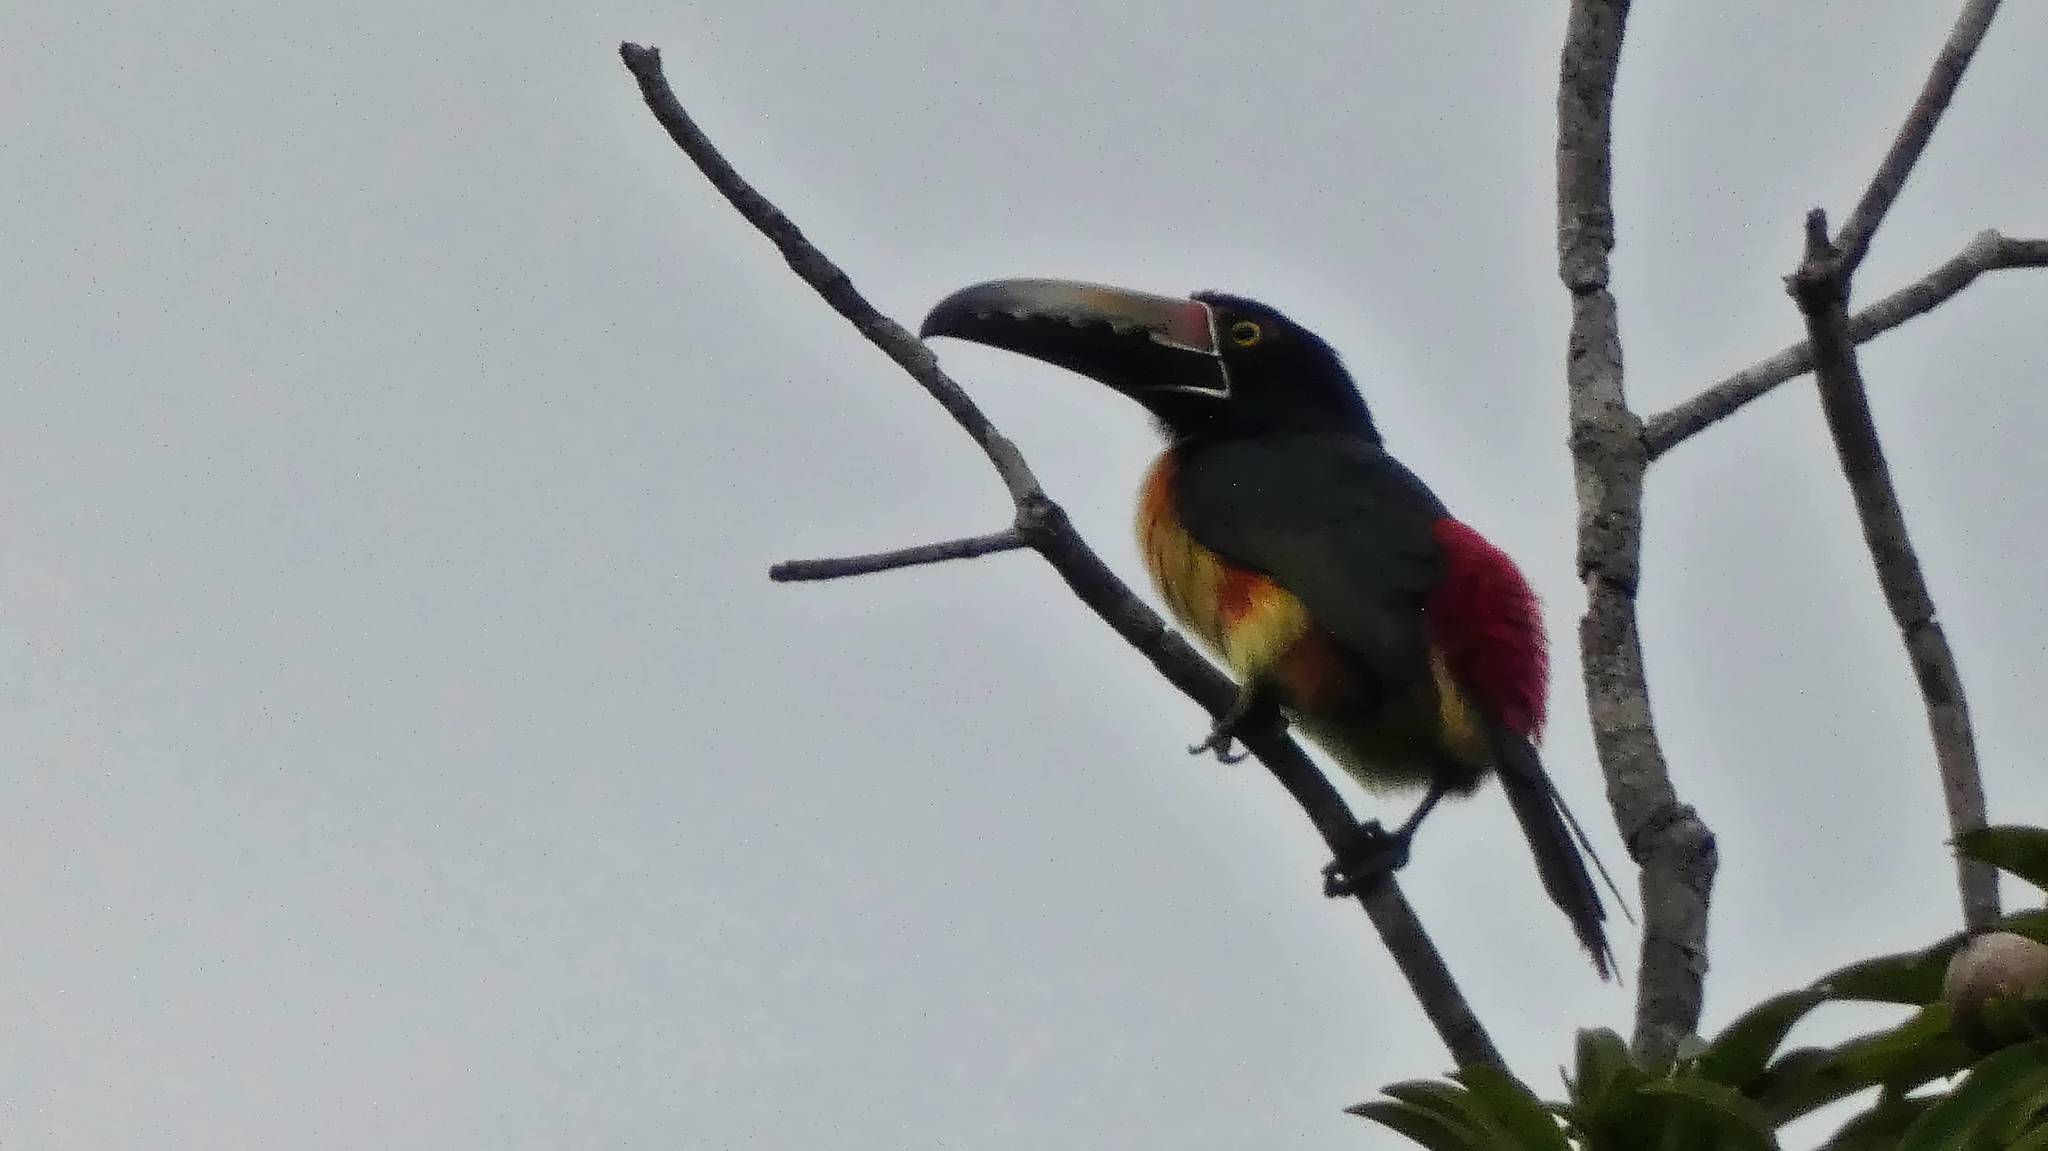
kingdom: Animalia
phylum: Chordata
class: Aves
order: Piciformes
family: Ramphastidae
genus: Pteroglossus
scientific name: Pteroglossus torquatus
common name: Collared aracari
